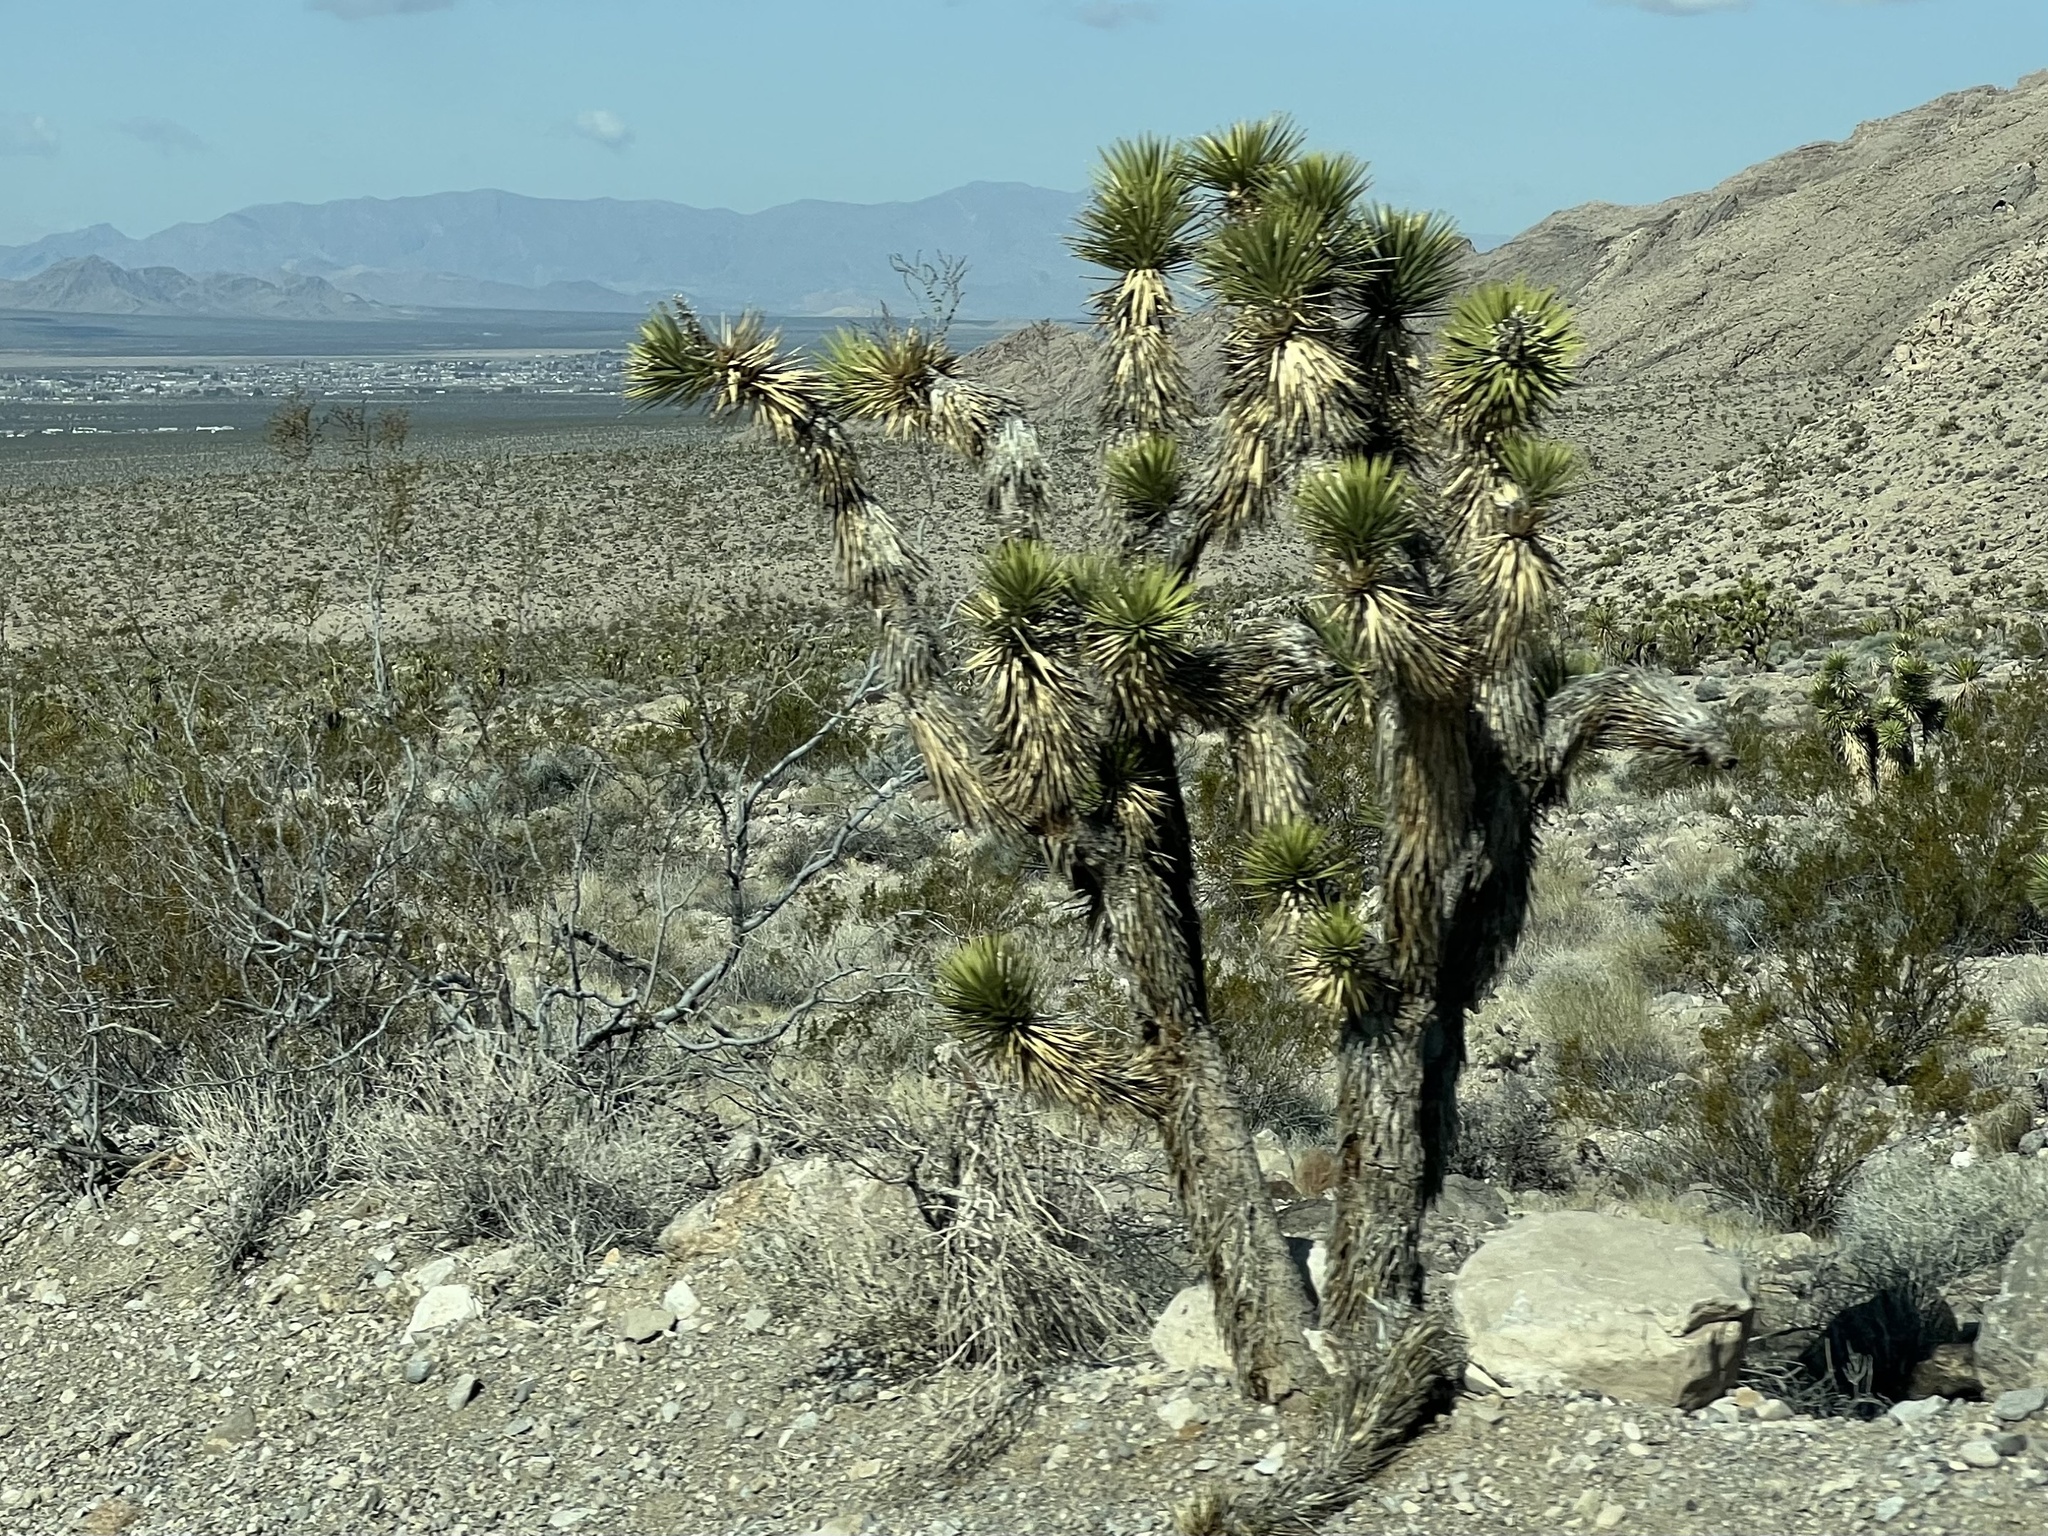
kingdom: Plantae
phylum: Tracheophyta
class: Liliopsida
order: Asparagales
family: Asparagaceae
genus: Yucca
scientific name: Yucca brevifolia
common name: Joshua tree
